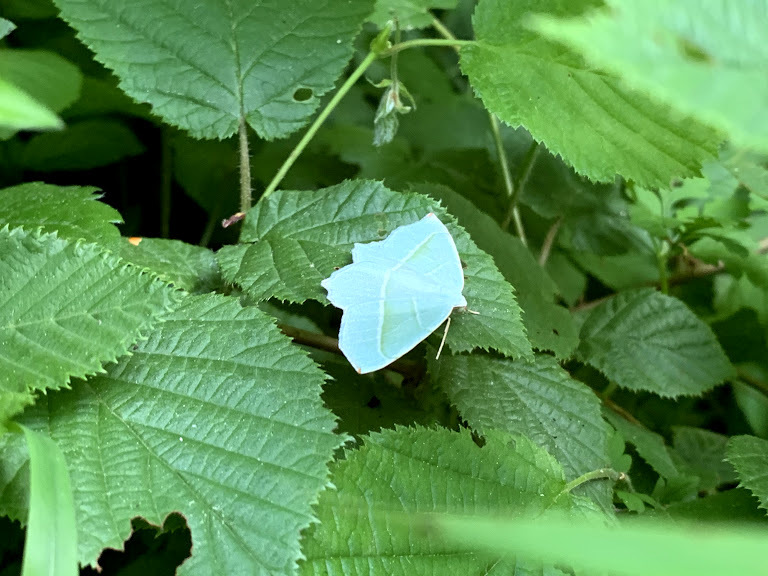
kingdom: Animalia
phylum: Arthropoda
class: Insecta
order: Lepidoptera
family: Geometridae
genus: Campaea
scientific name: Campaea margaritaria
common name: Light emerald
